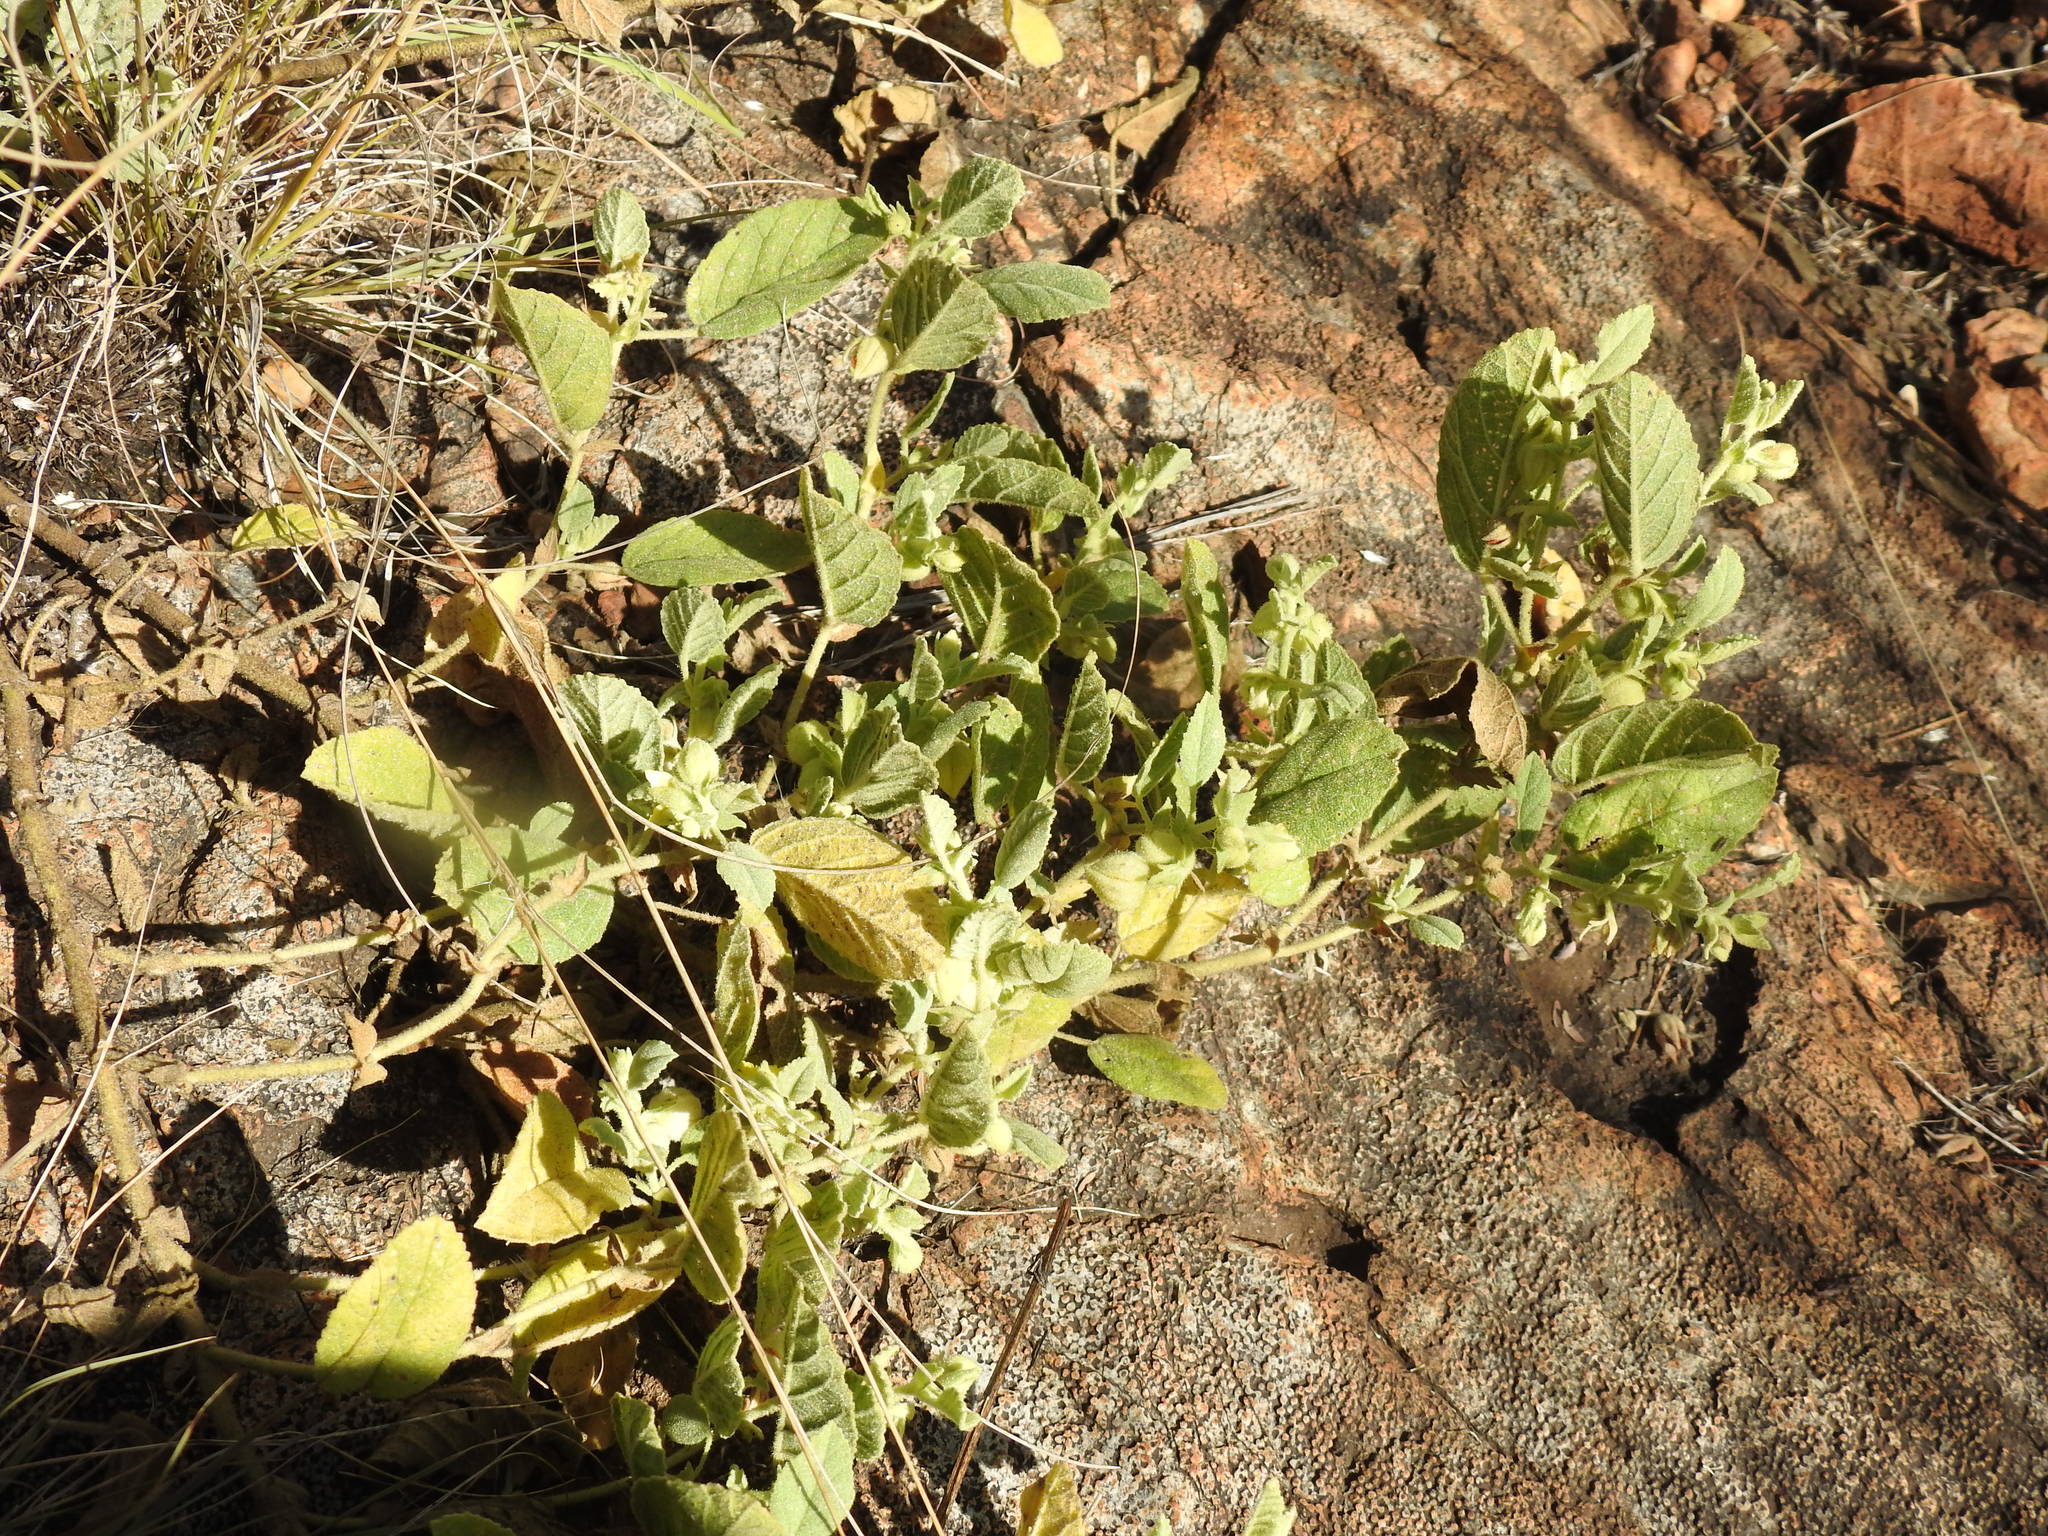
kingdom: Plantae
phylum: Tracheophyta
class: Magnoliopsida
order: Malvales
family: Malvaceae
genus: Hermannia
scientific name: Hermannia grandistipula
